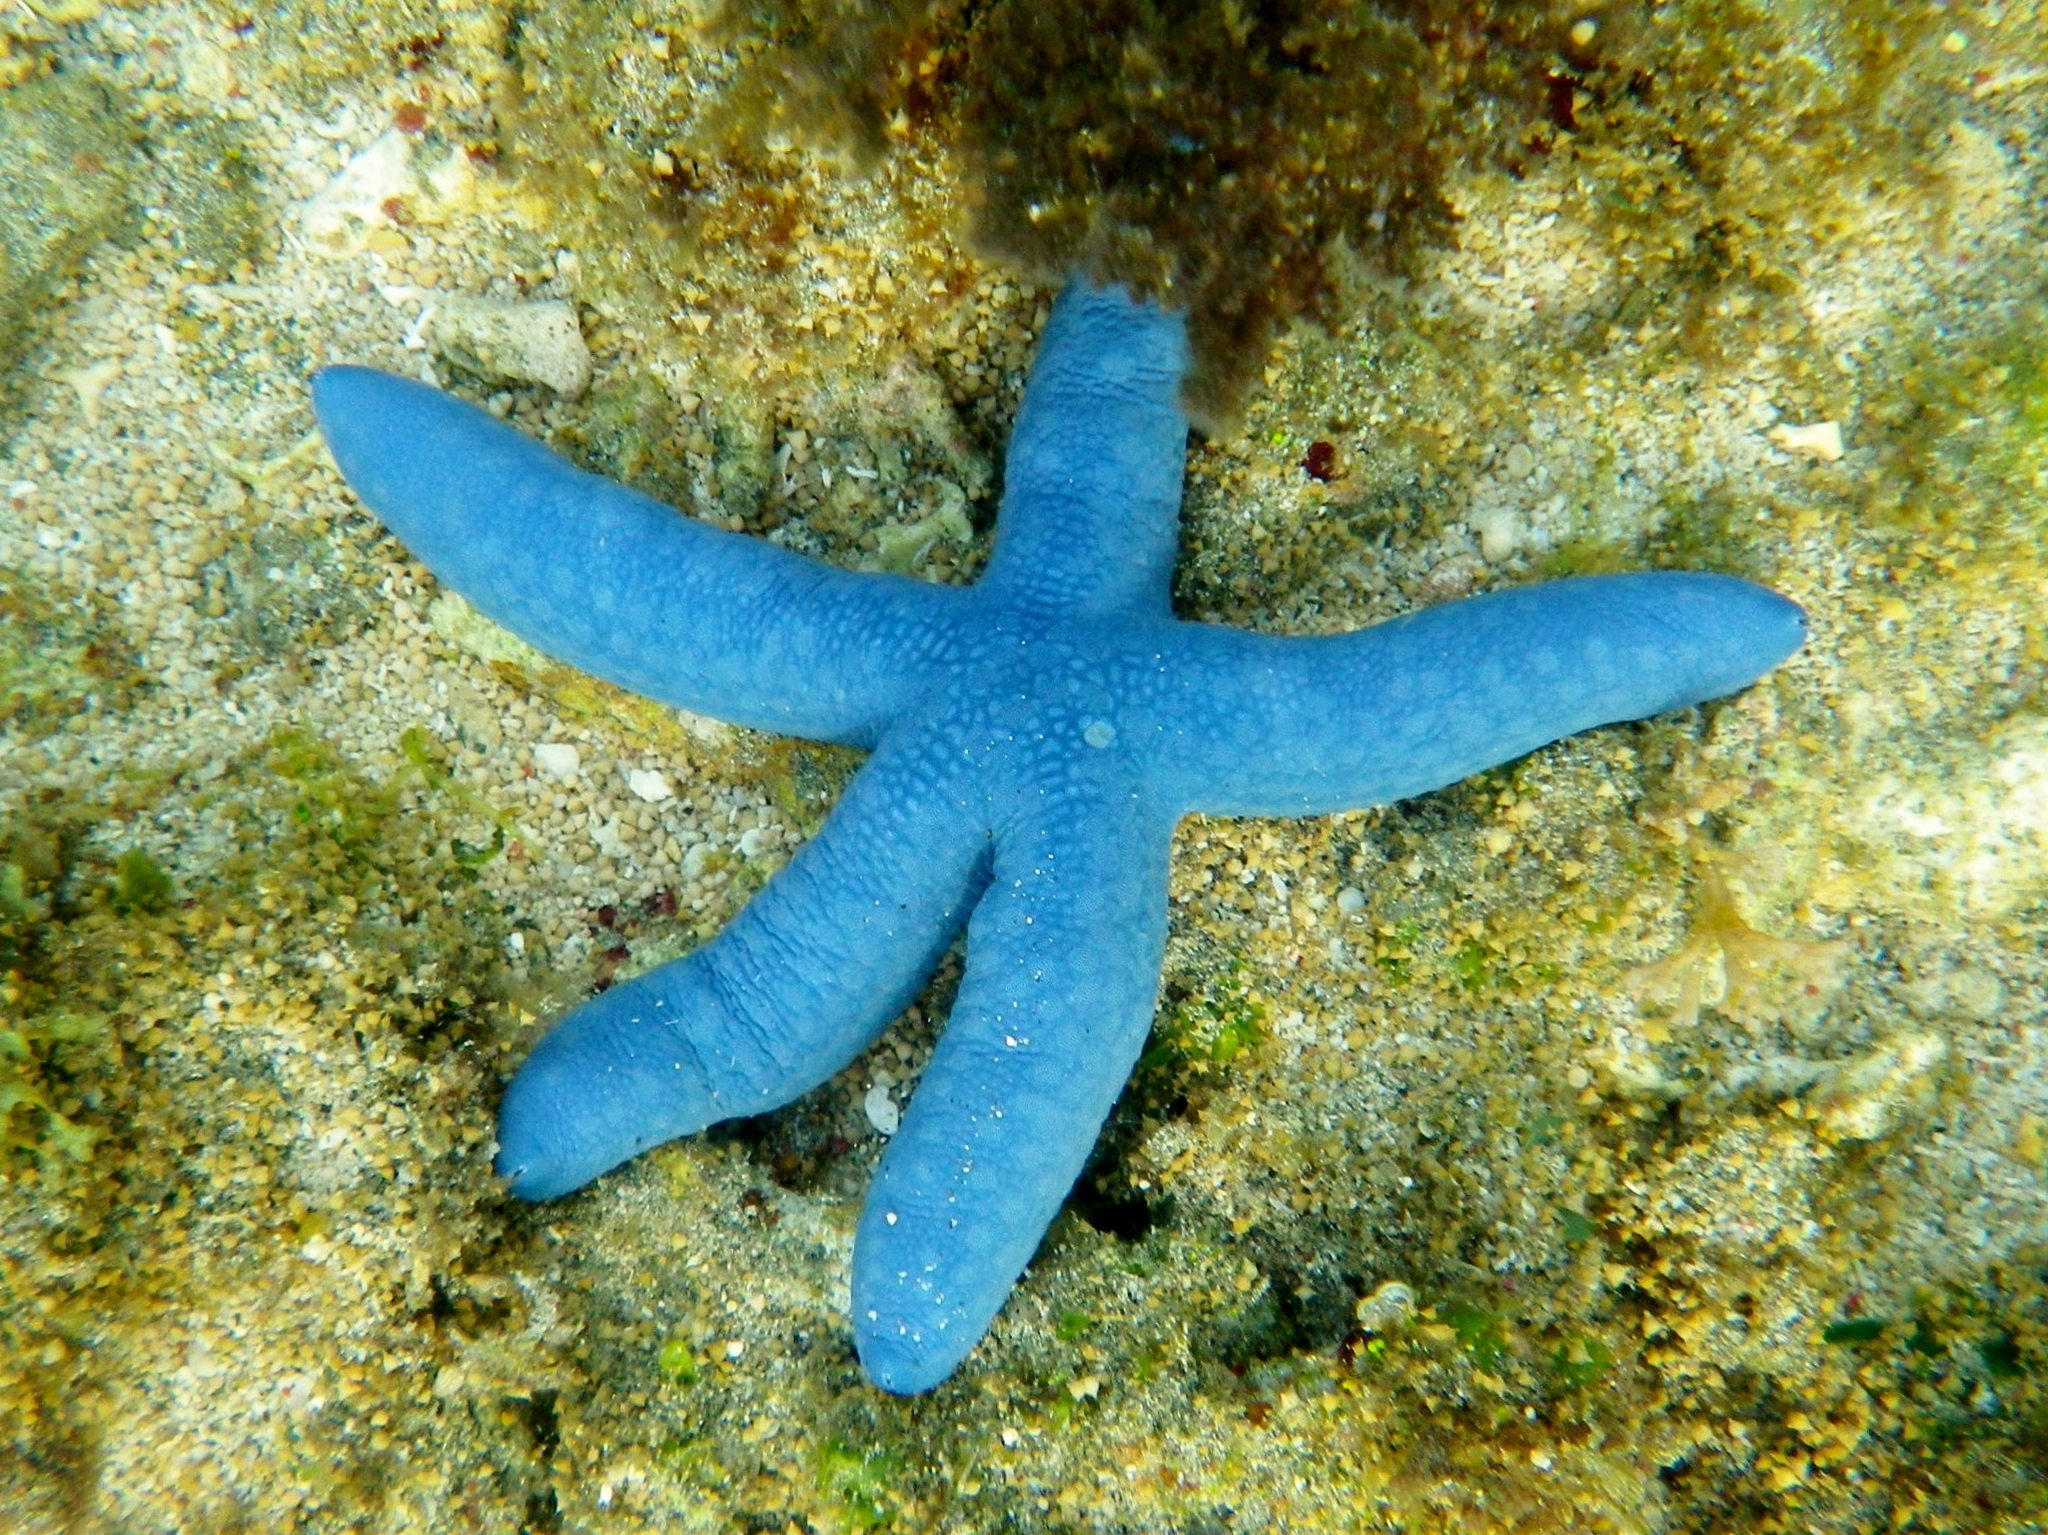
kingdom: Animalia
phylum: Echinodermata
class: Asteroidea
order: Valvatida
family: Ophidiasteridae
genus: Linckia
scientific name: Linckia laevigata
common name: Azure sea star
